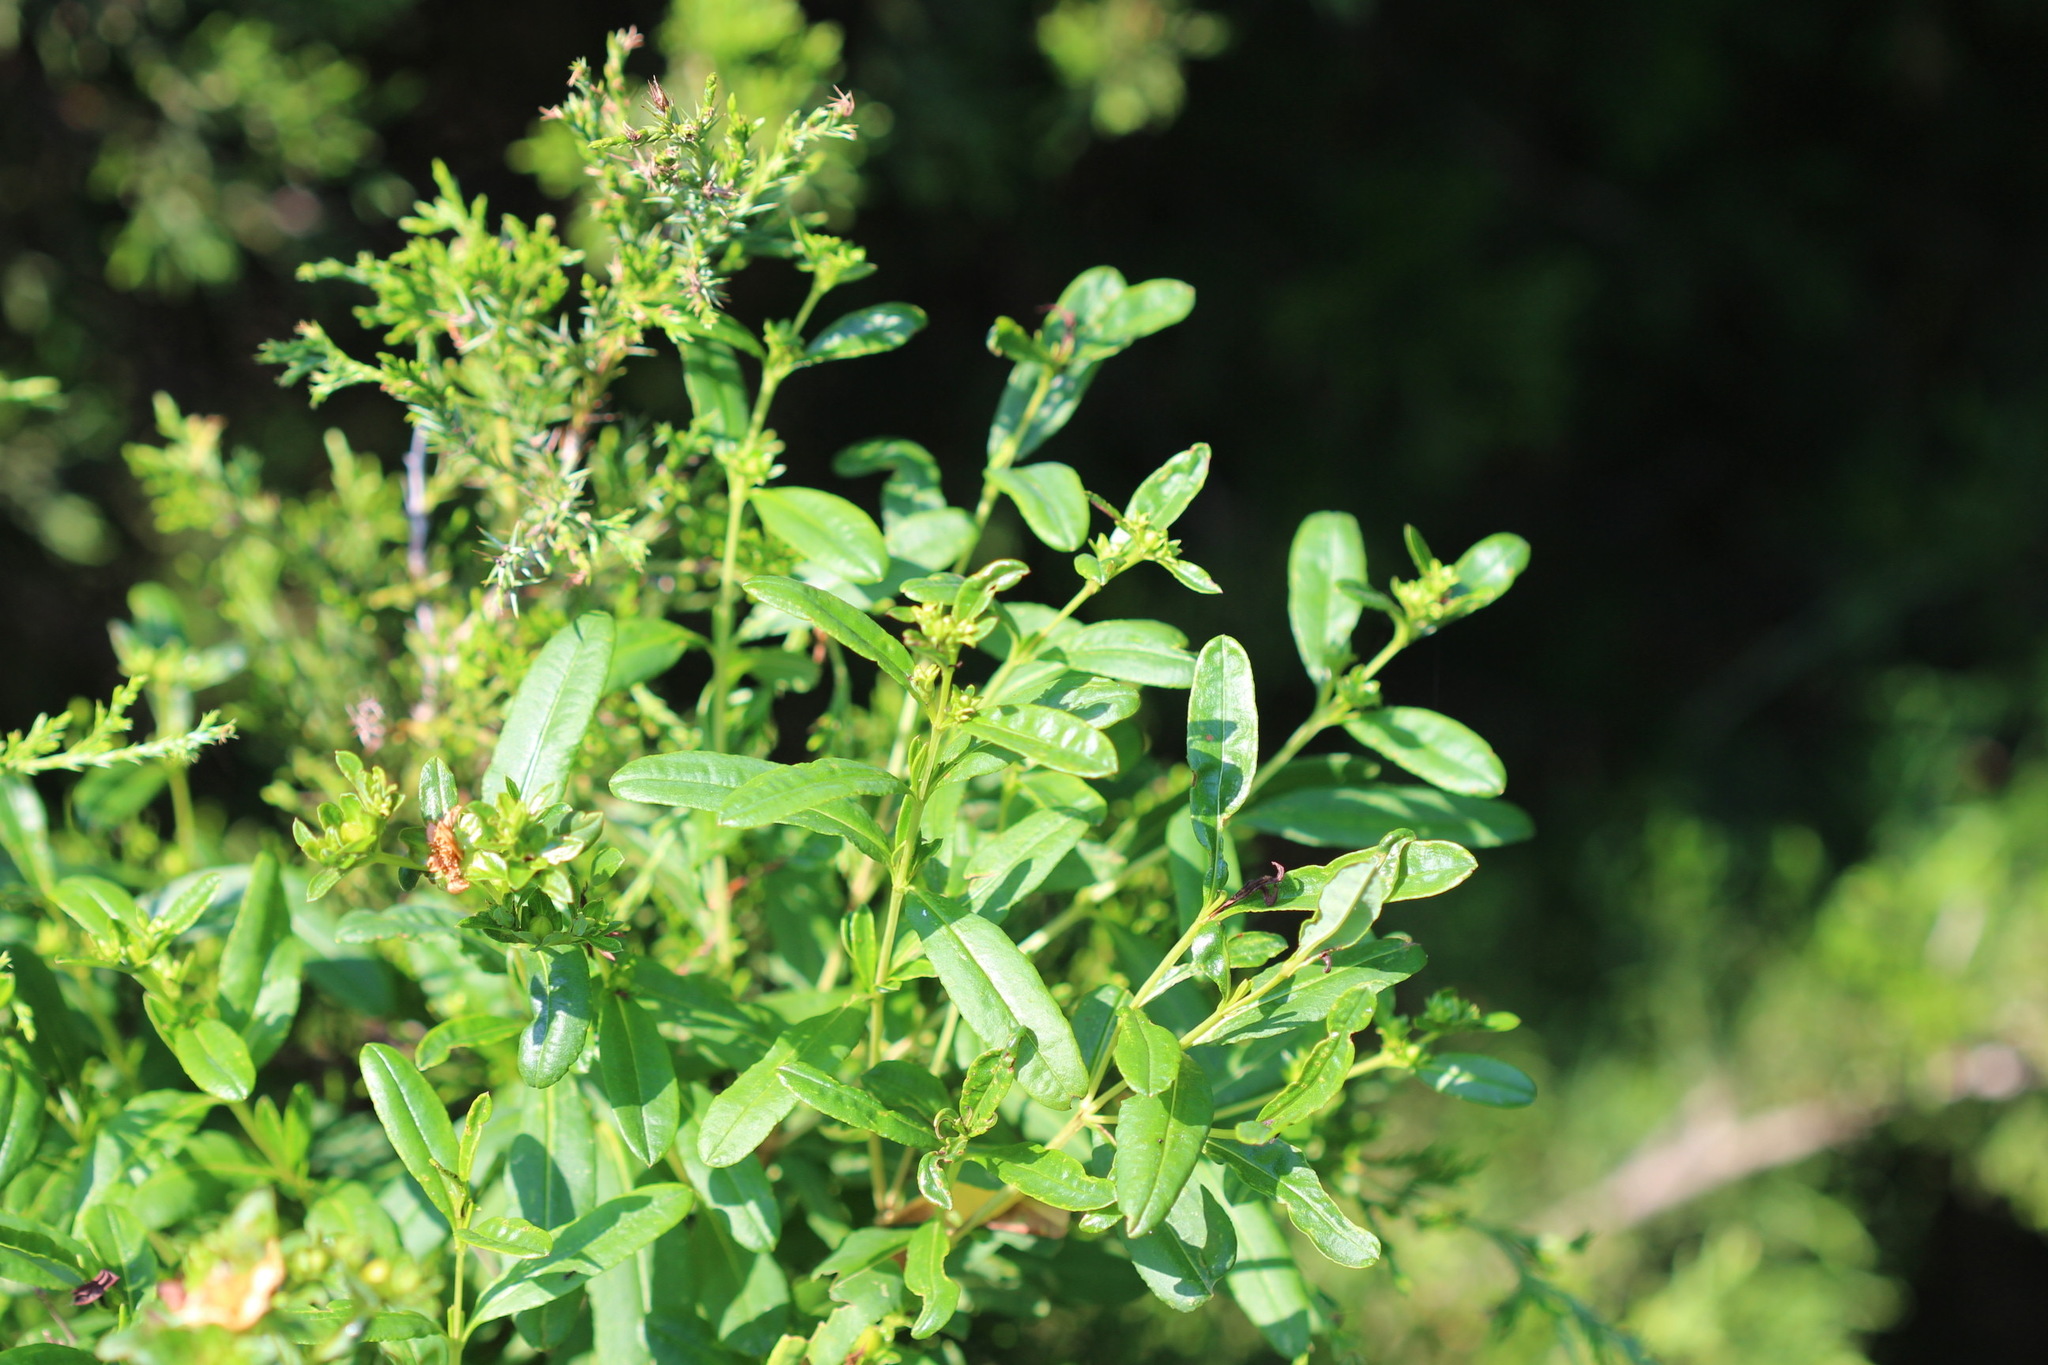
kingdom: Plantae
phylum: Tracheophyta
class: Magnoliopsida
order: Malpighiales
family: Hypericaceae
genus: Hypericum
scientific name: Hypericum prolificum
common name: Shrubby st. john's-wort
